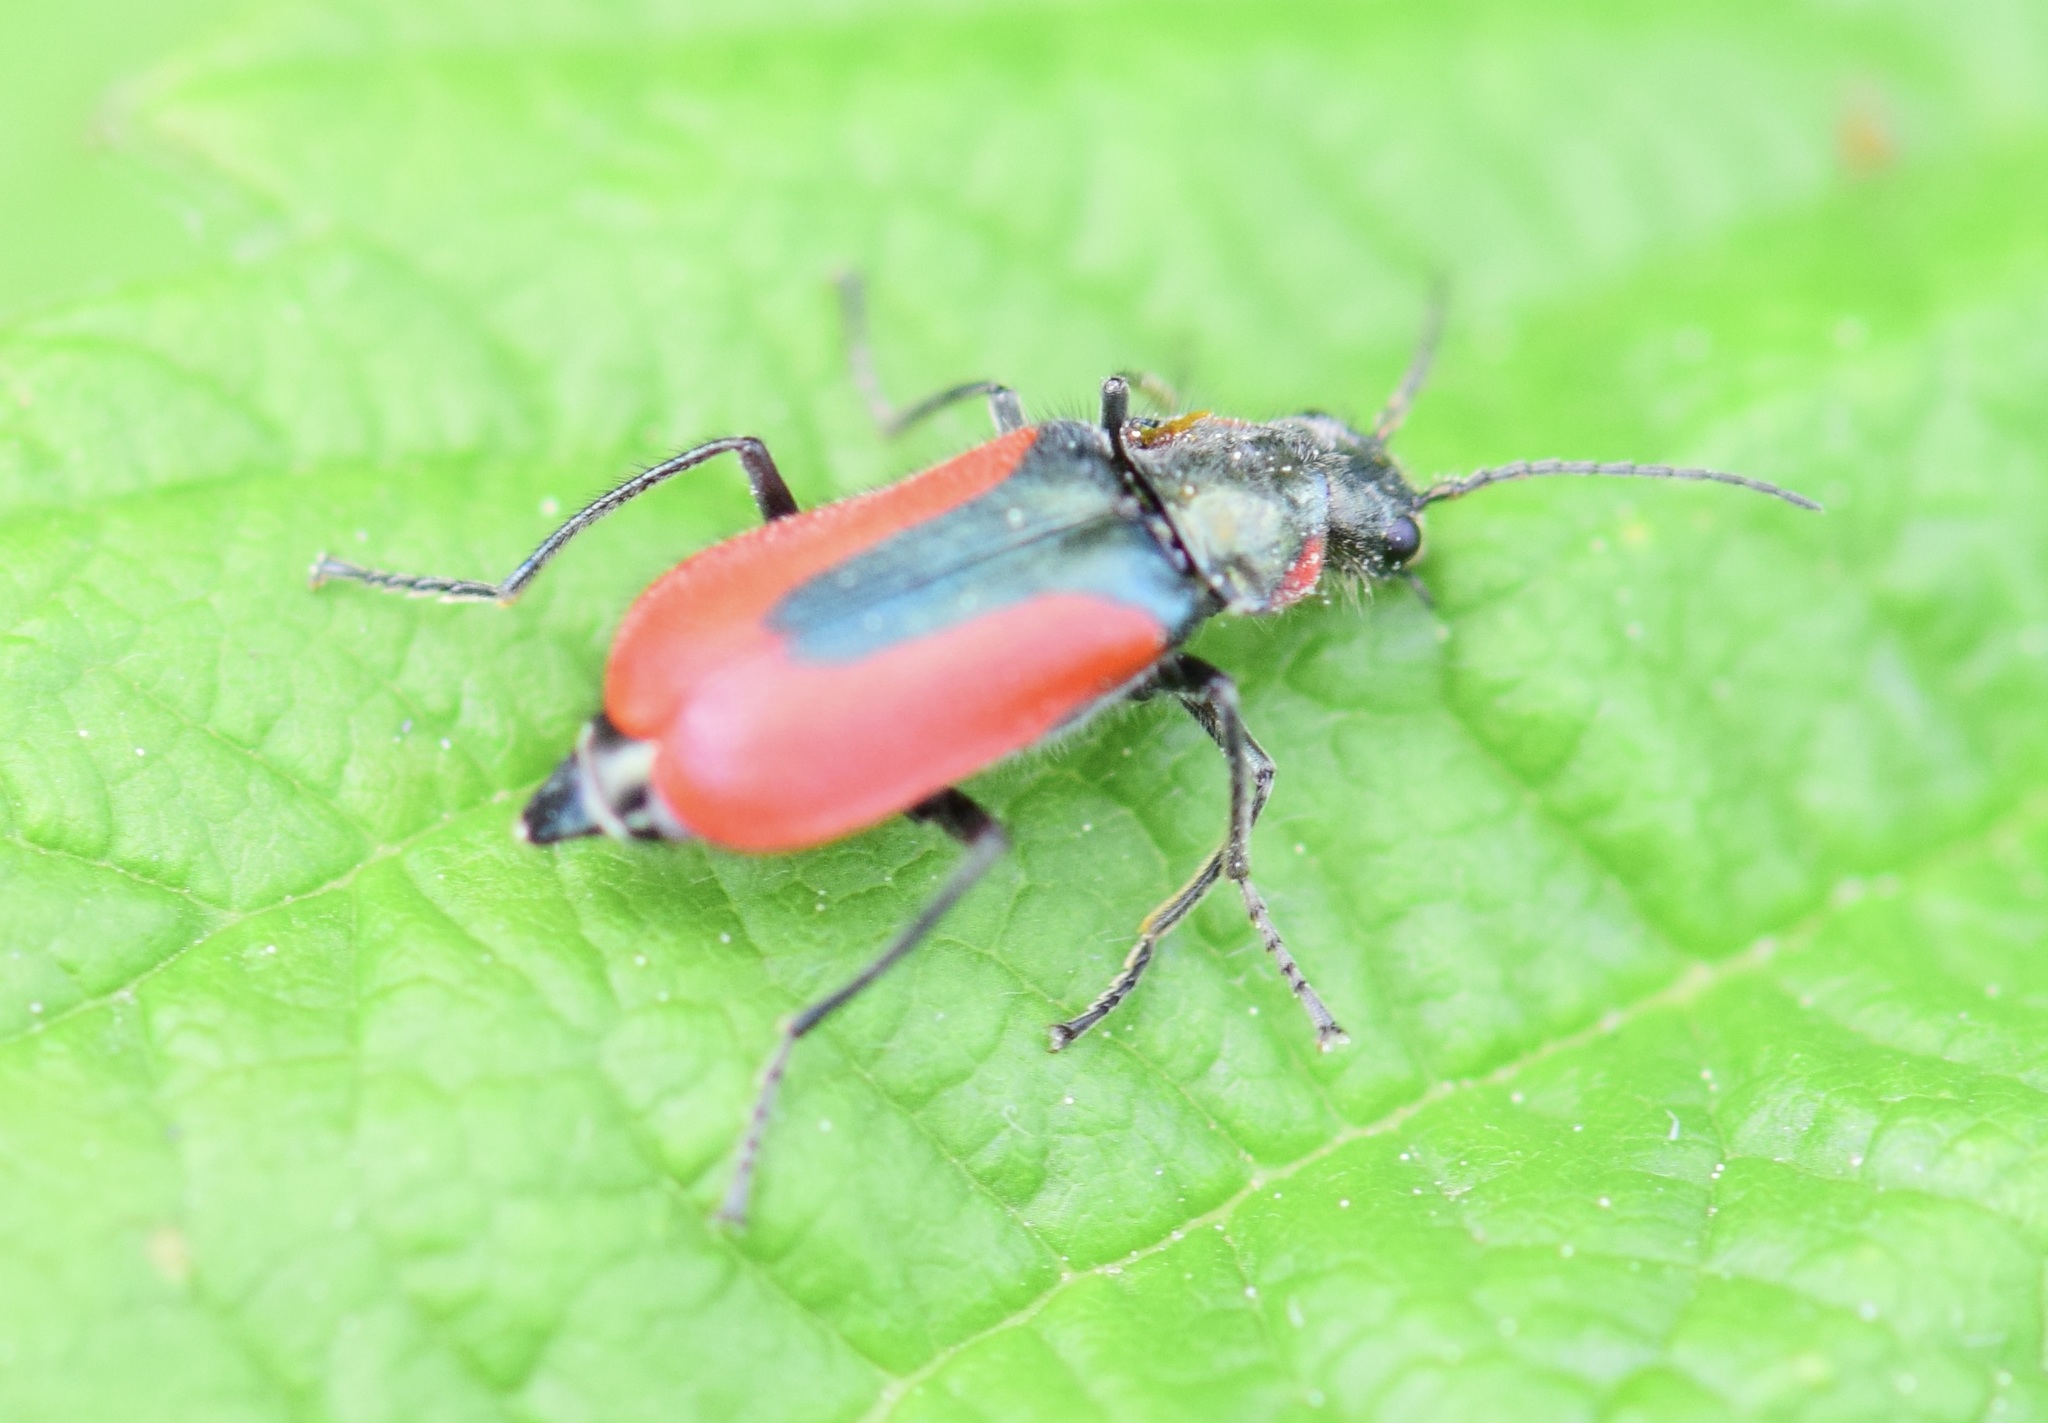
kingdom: Animalia
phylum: Arthropoda
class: Insecta
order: Coleoptera
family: Melyridae
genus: Malachius
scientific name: Malachius aeneus
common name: Scarlet malachite beetle
